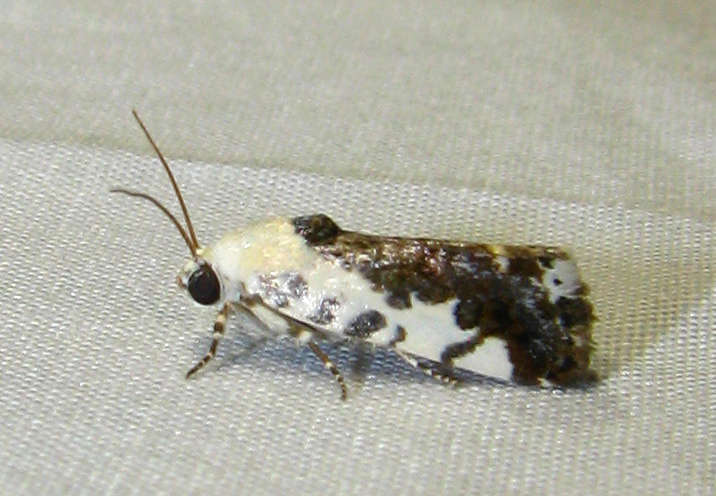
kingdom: Animalia
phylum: Arthropoda
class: Insecta
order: Lepidoptera
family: Noctuidae
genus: Acontia
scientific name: Acontia nivipicta
